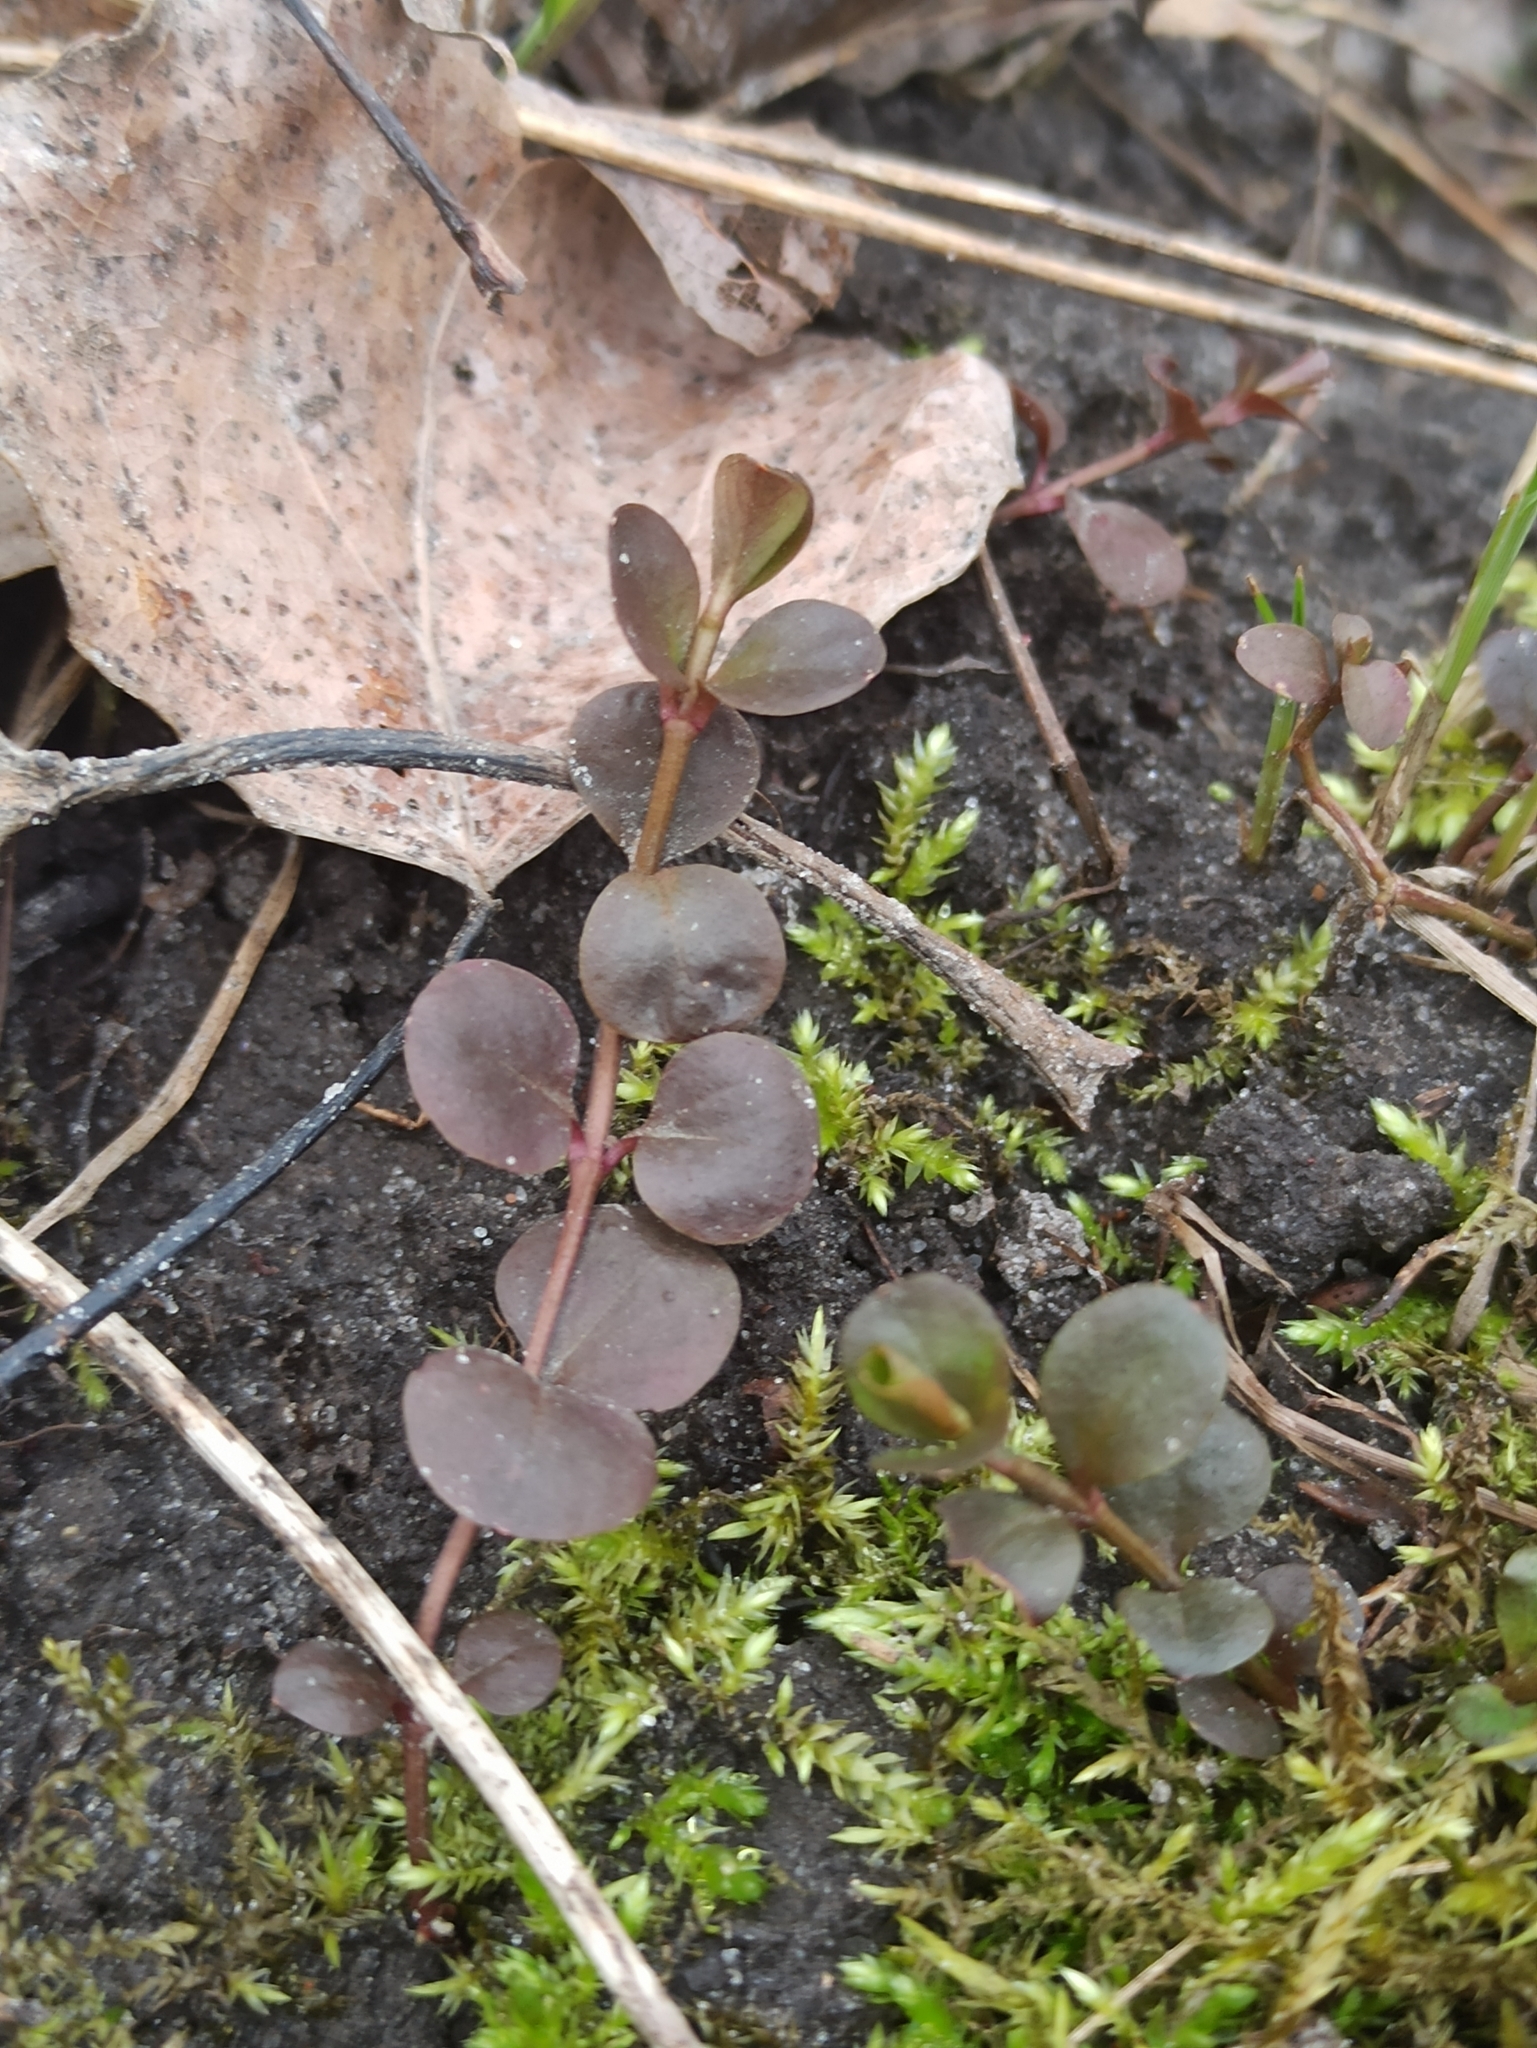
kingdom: Plantae
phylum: Tracheophyta
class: Magnoliopsida
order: Ericales
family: Primulaceae
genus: Lysimachia
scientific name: Lysimachia nummularia
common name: Moneywort
